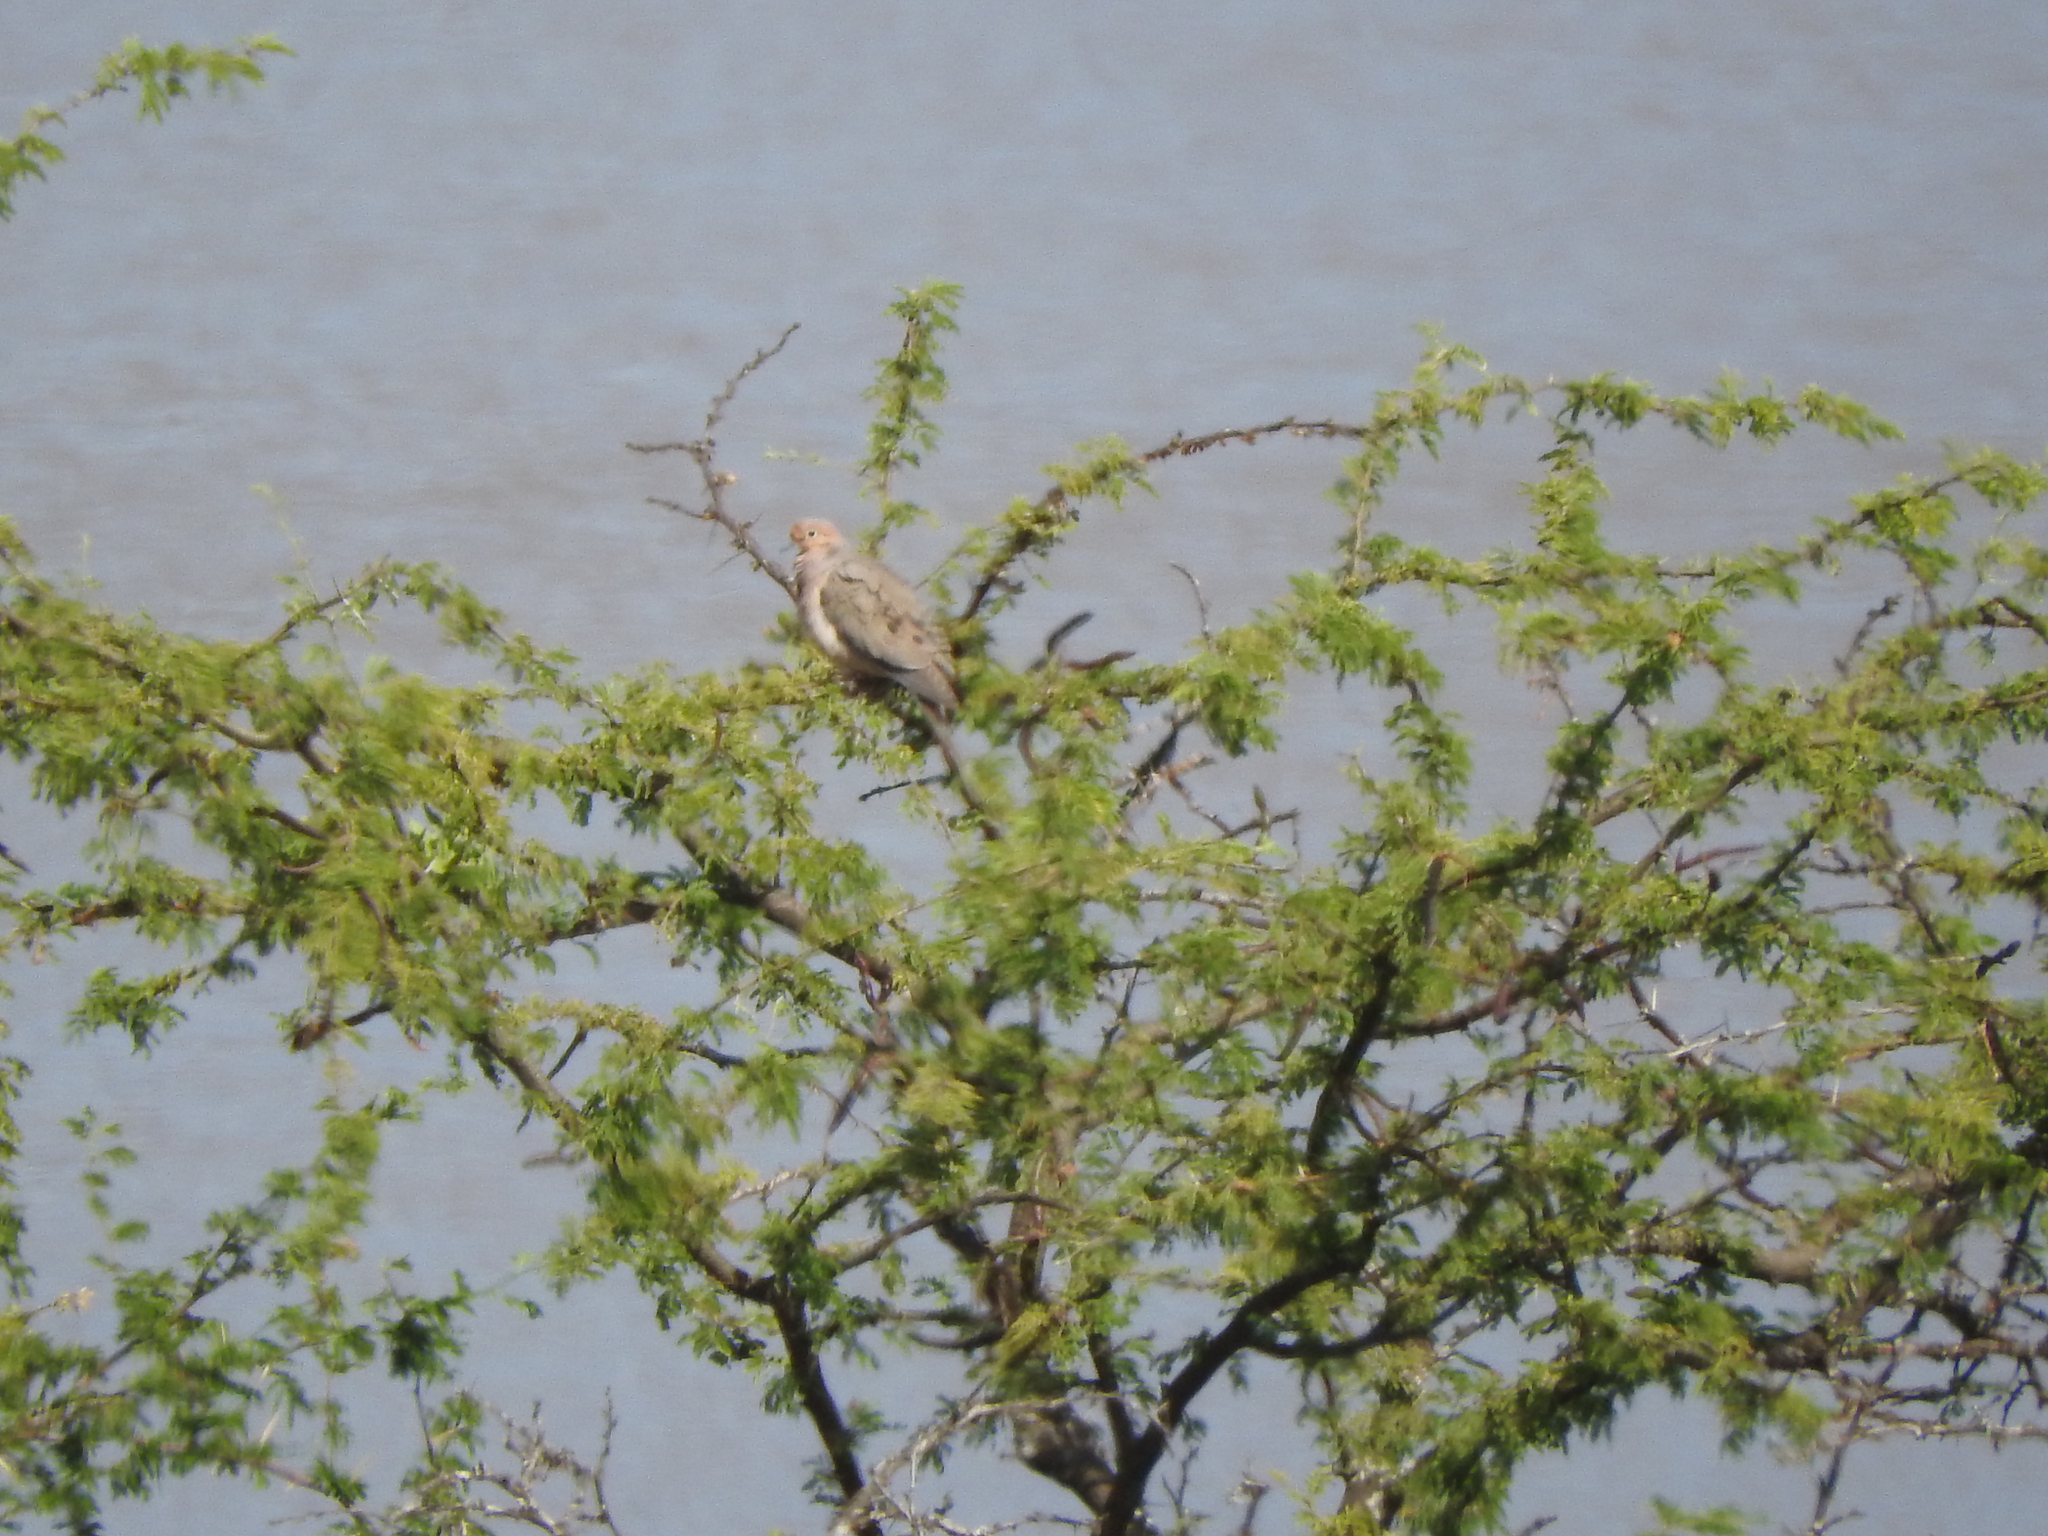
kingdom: Animalia
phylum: Chordata
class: Aves
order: Columbiformes
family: Columbidae
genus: Zenaida
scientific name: Zenaida macroura
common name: Mourning dove
